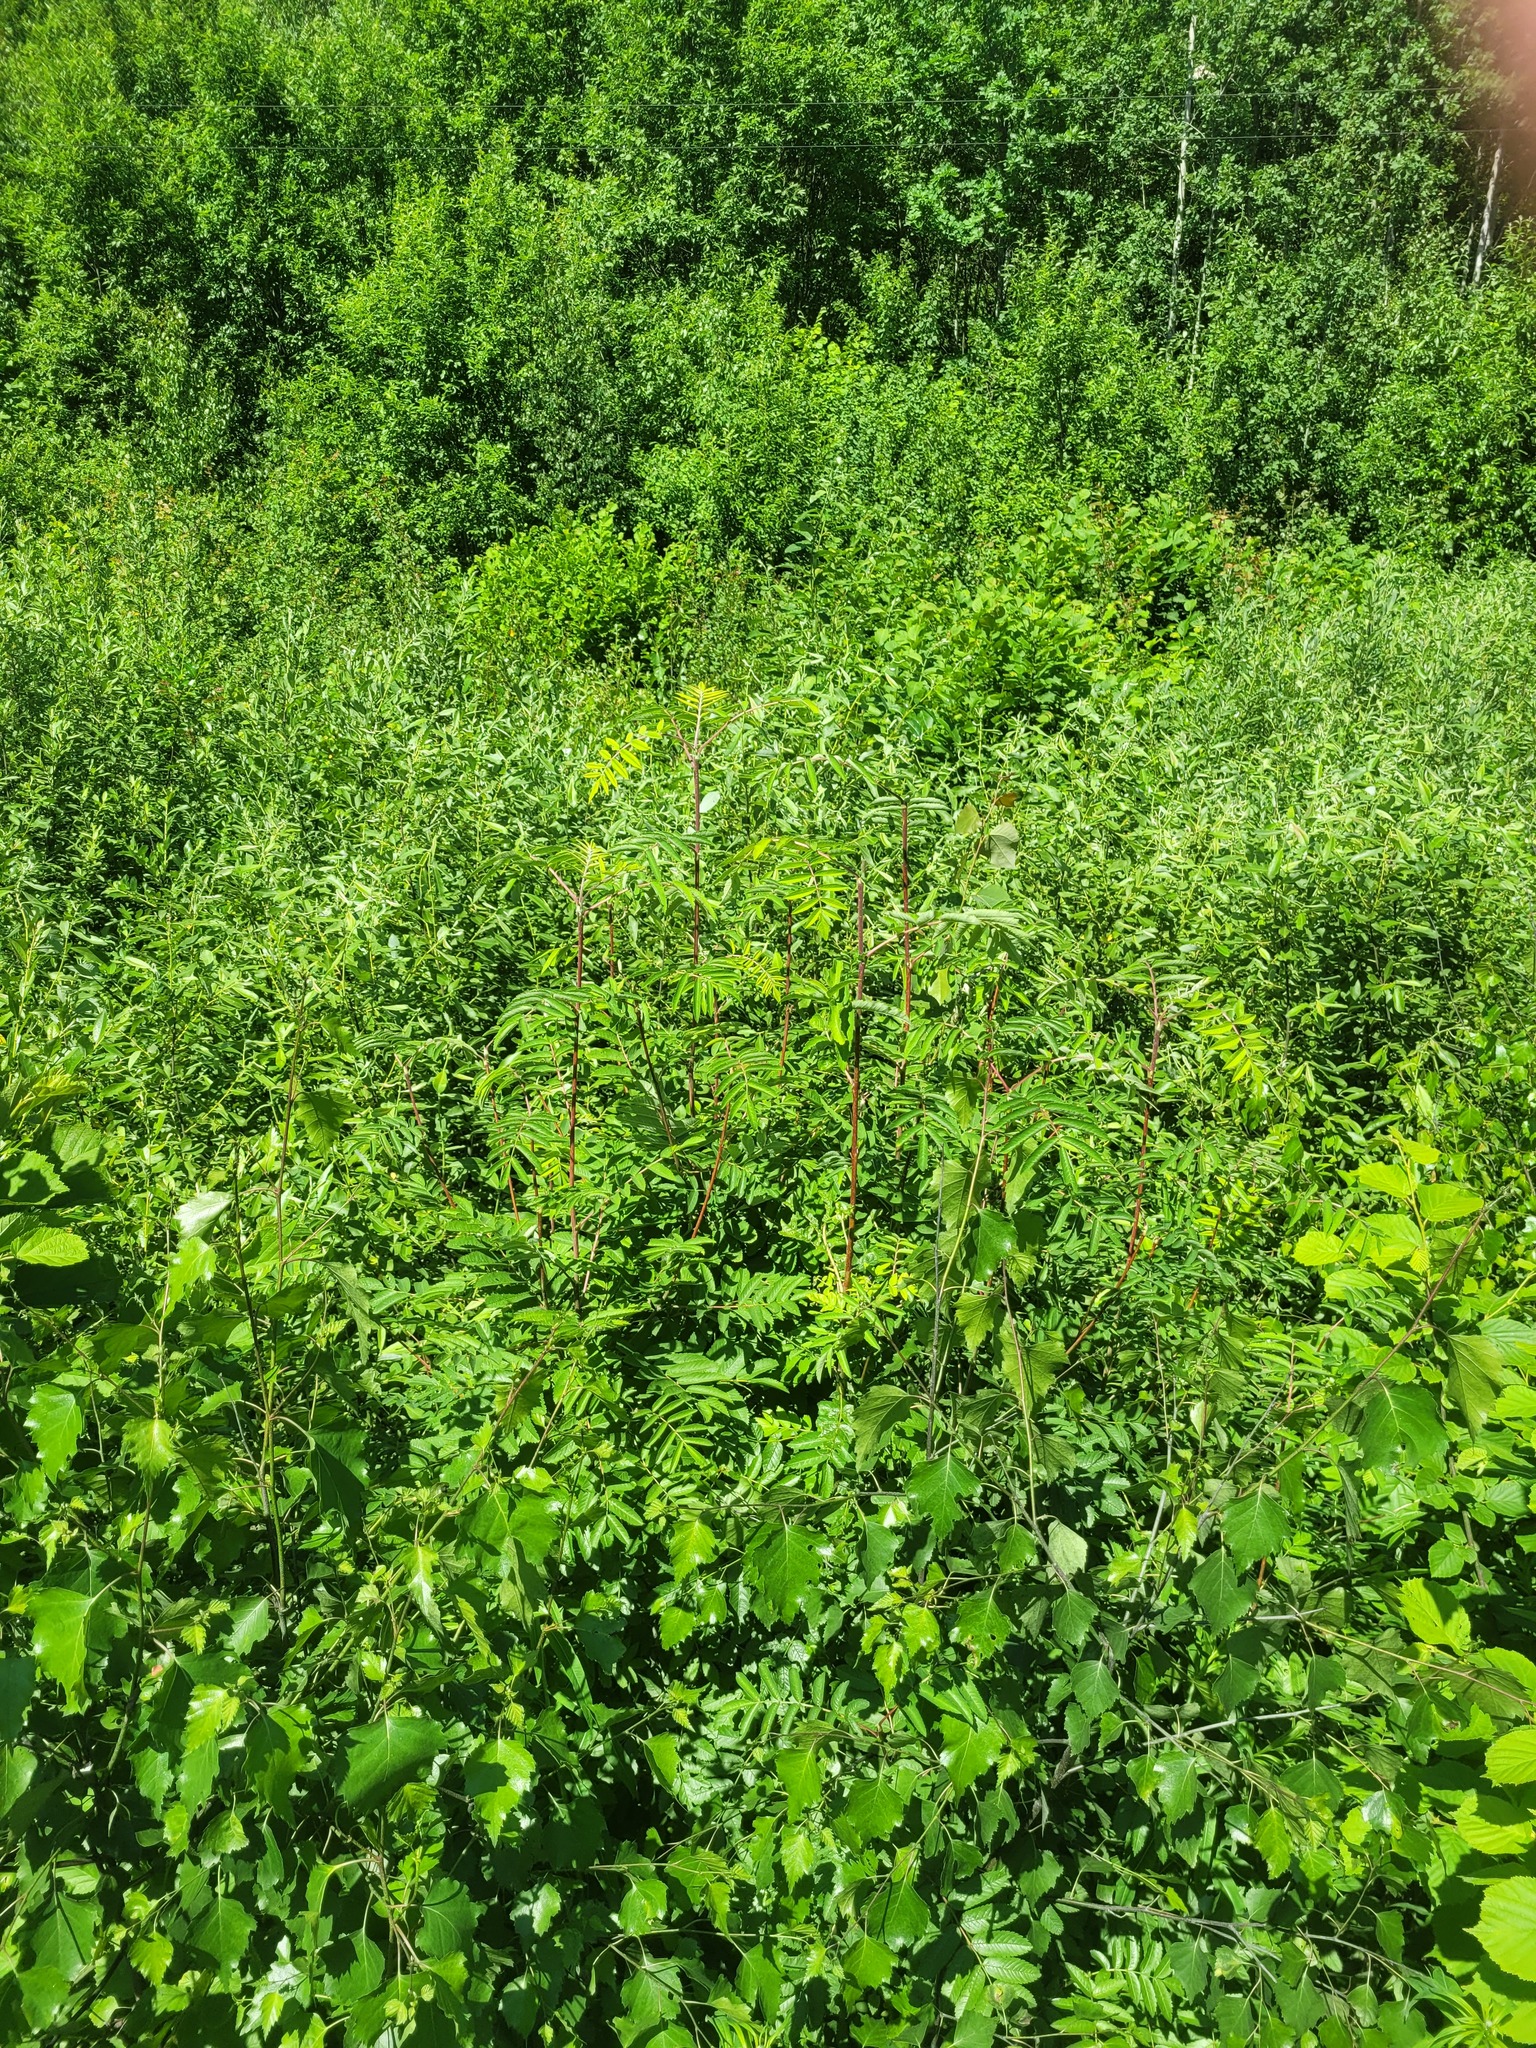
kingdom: Plantae
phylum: Tracheophyta
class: Magnoliopsida
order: Rosales
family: Rosaceae
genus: Sorbus
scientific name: Sorbus aucuparia
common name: Rowan
